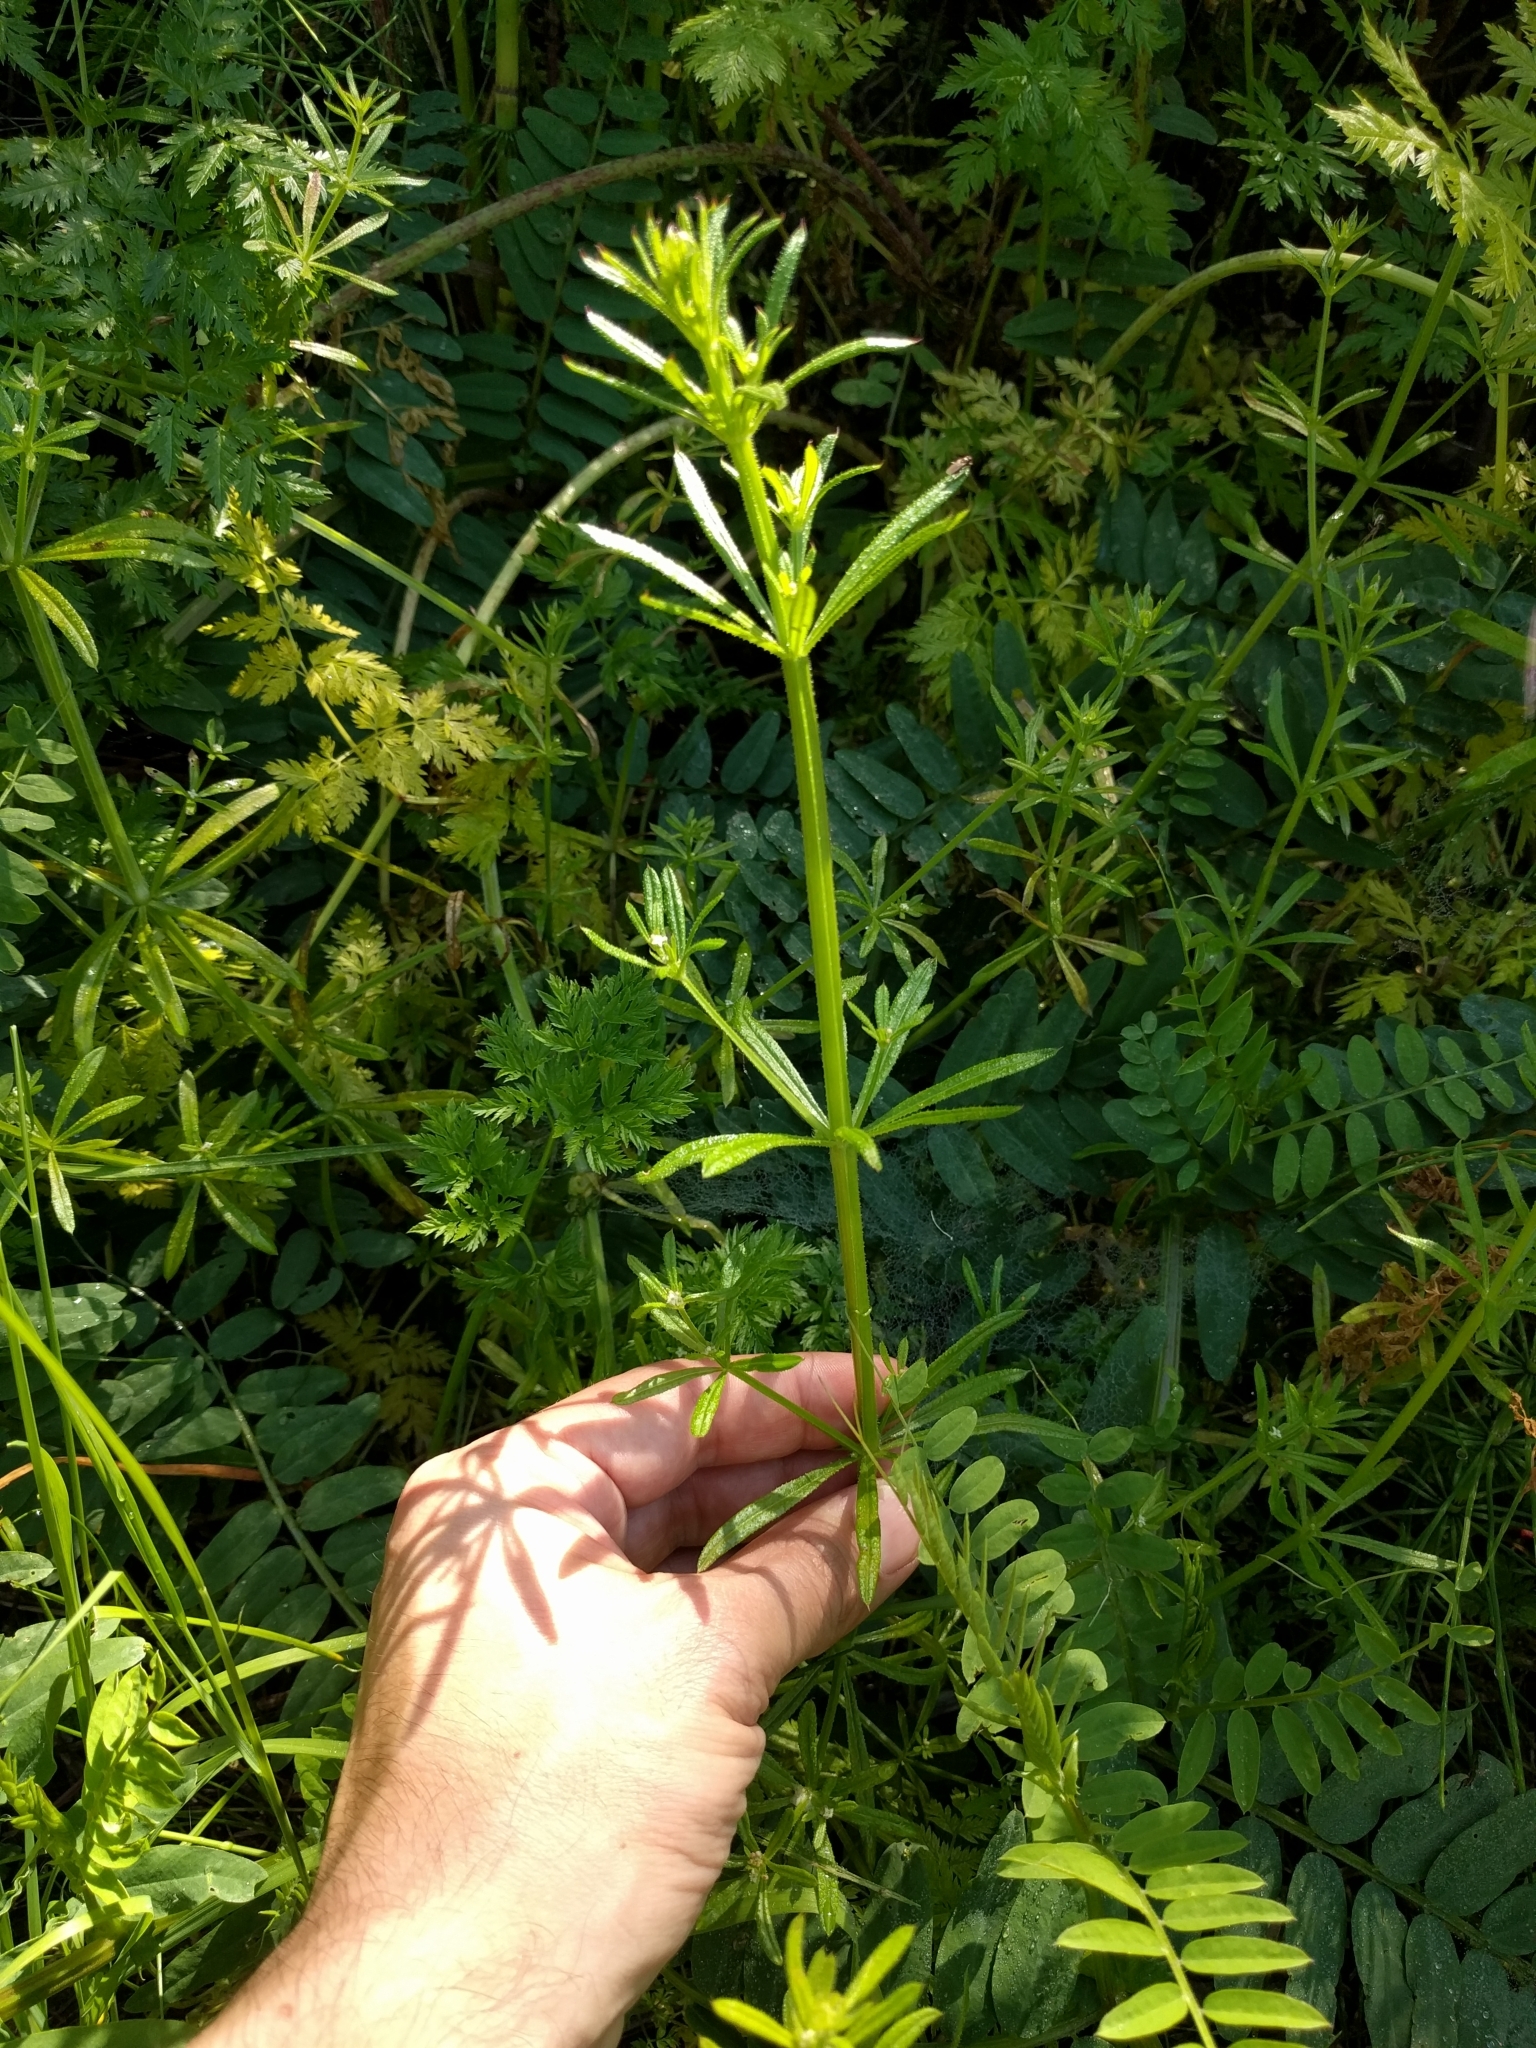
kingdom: Plantae
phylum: Tracheophyta
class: Magnoliopsida
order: Gentianales
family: Rubiaceae
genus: Galium
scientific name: Galium aparine
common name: Cleavers
